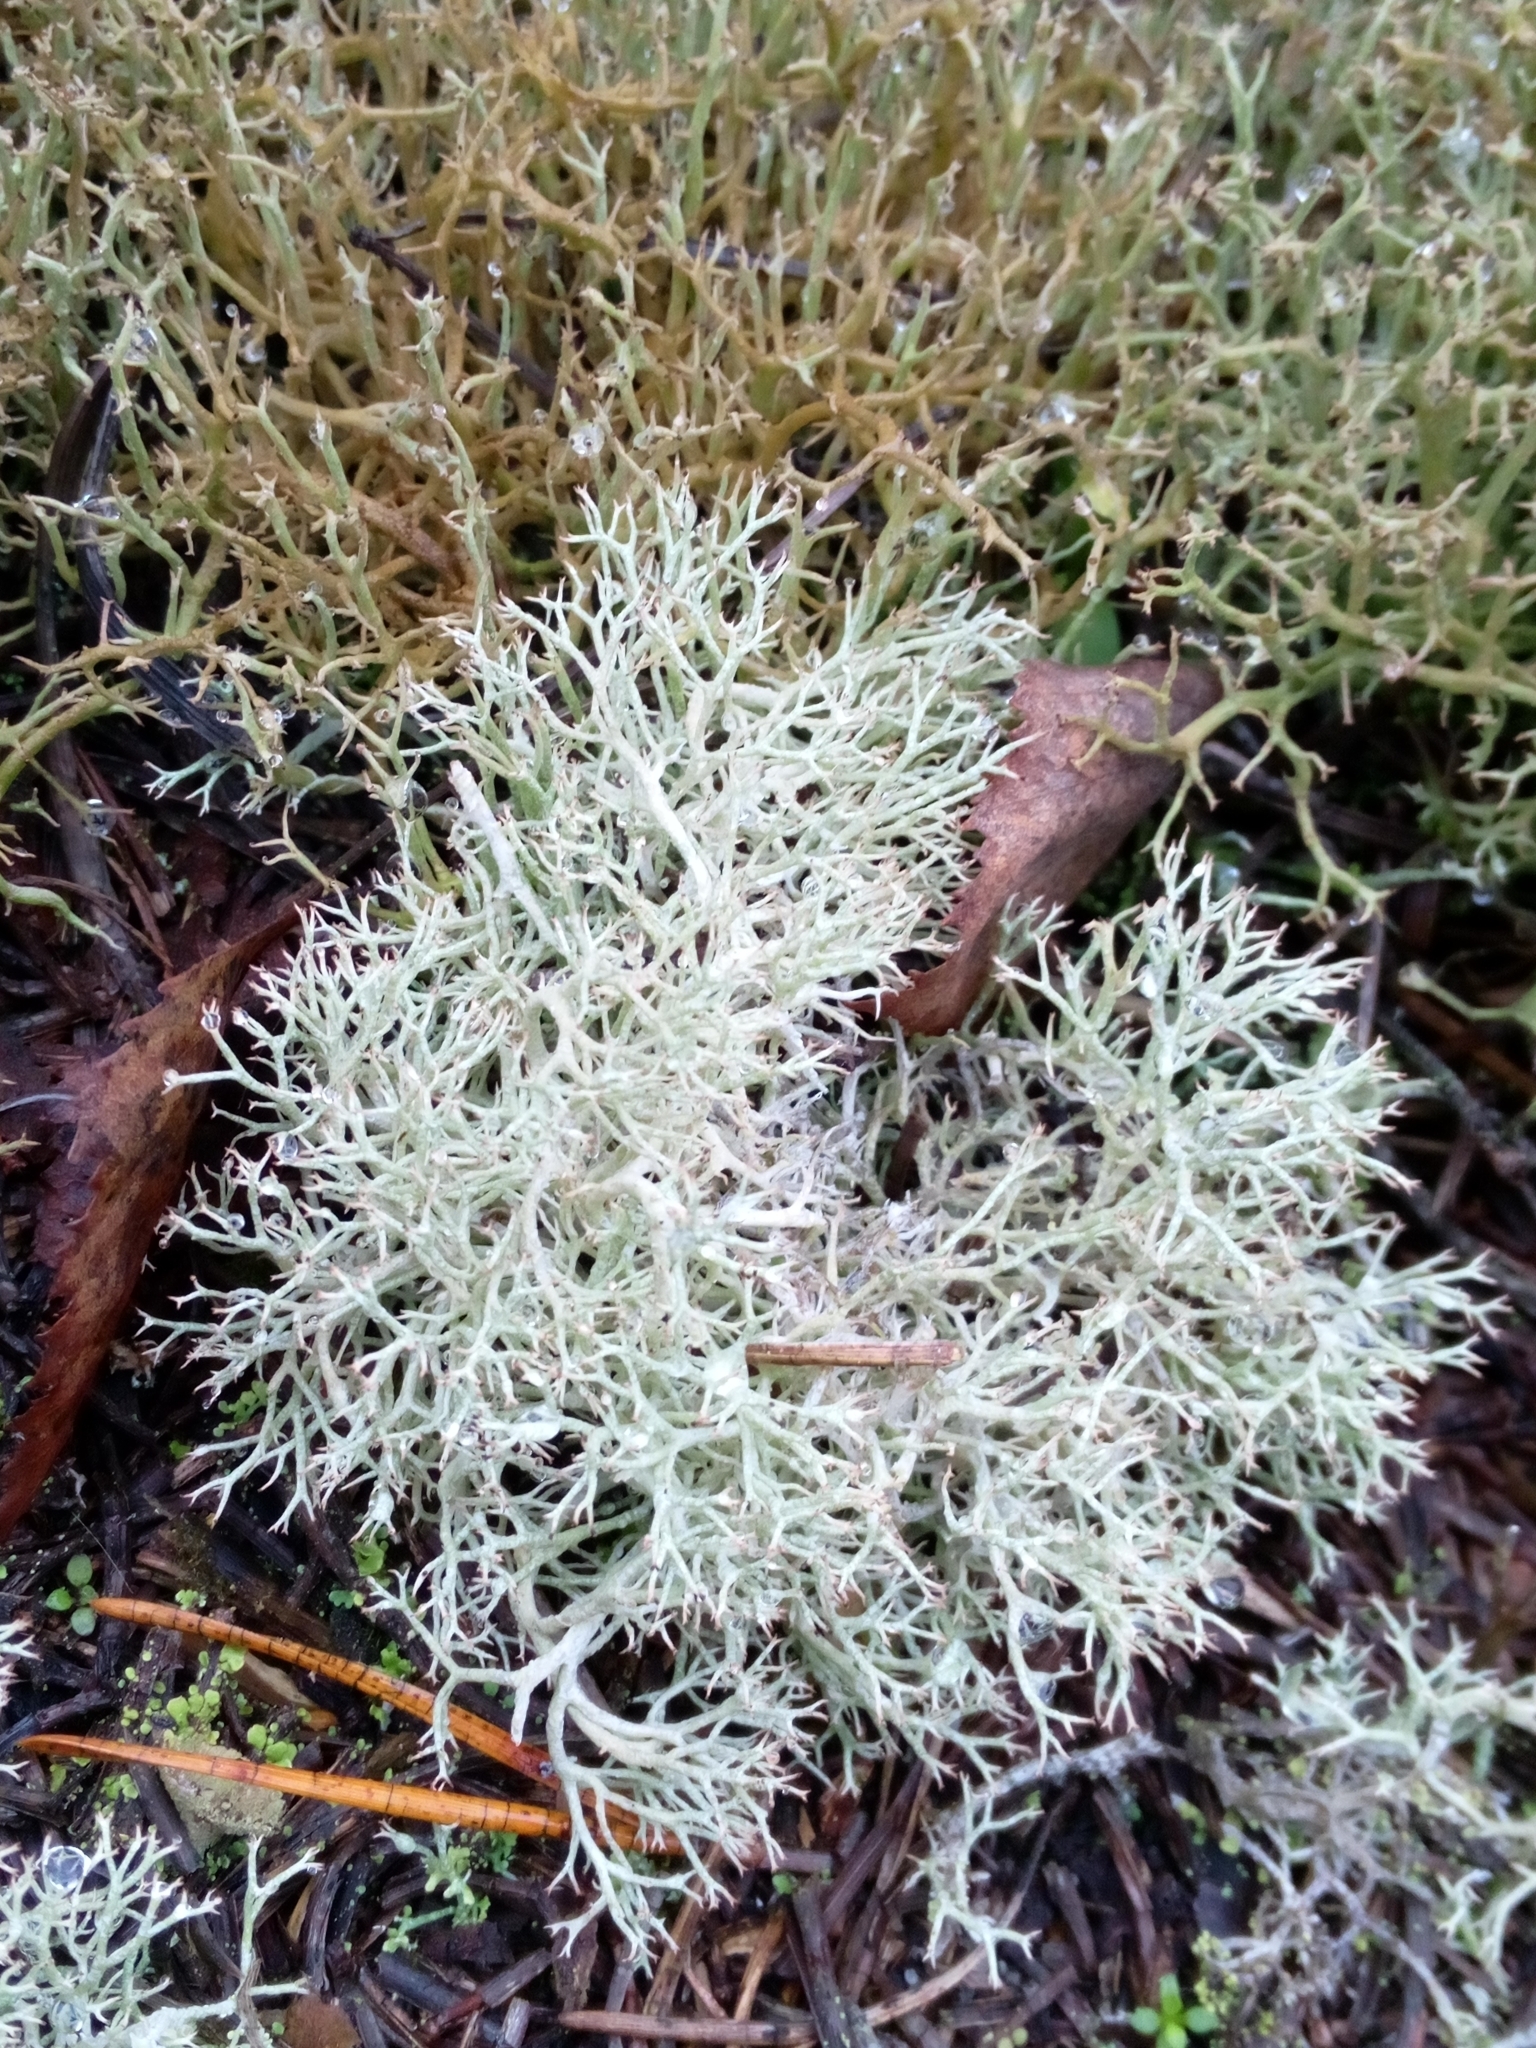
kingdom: Fungi
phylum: Ascomycota
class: Lecanoromycetes
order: Lecanorales
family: Cladoniaceae
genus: Cladonia
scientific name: Cladonia
